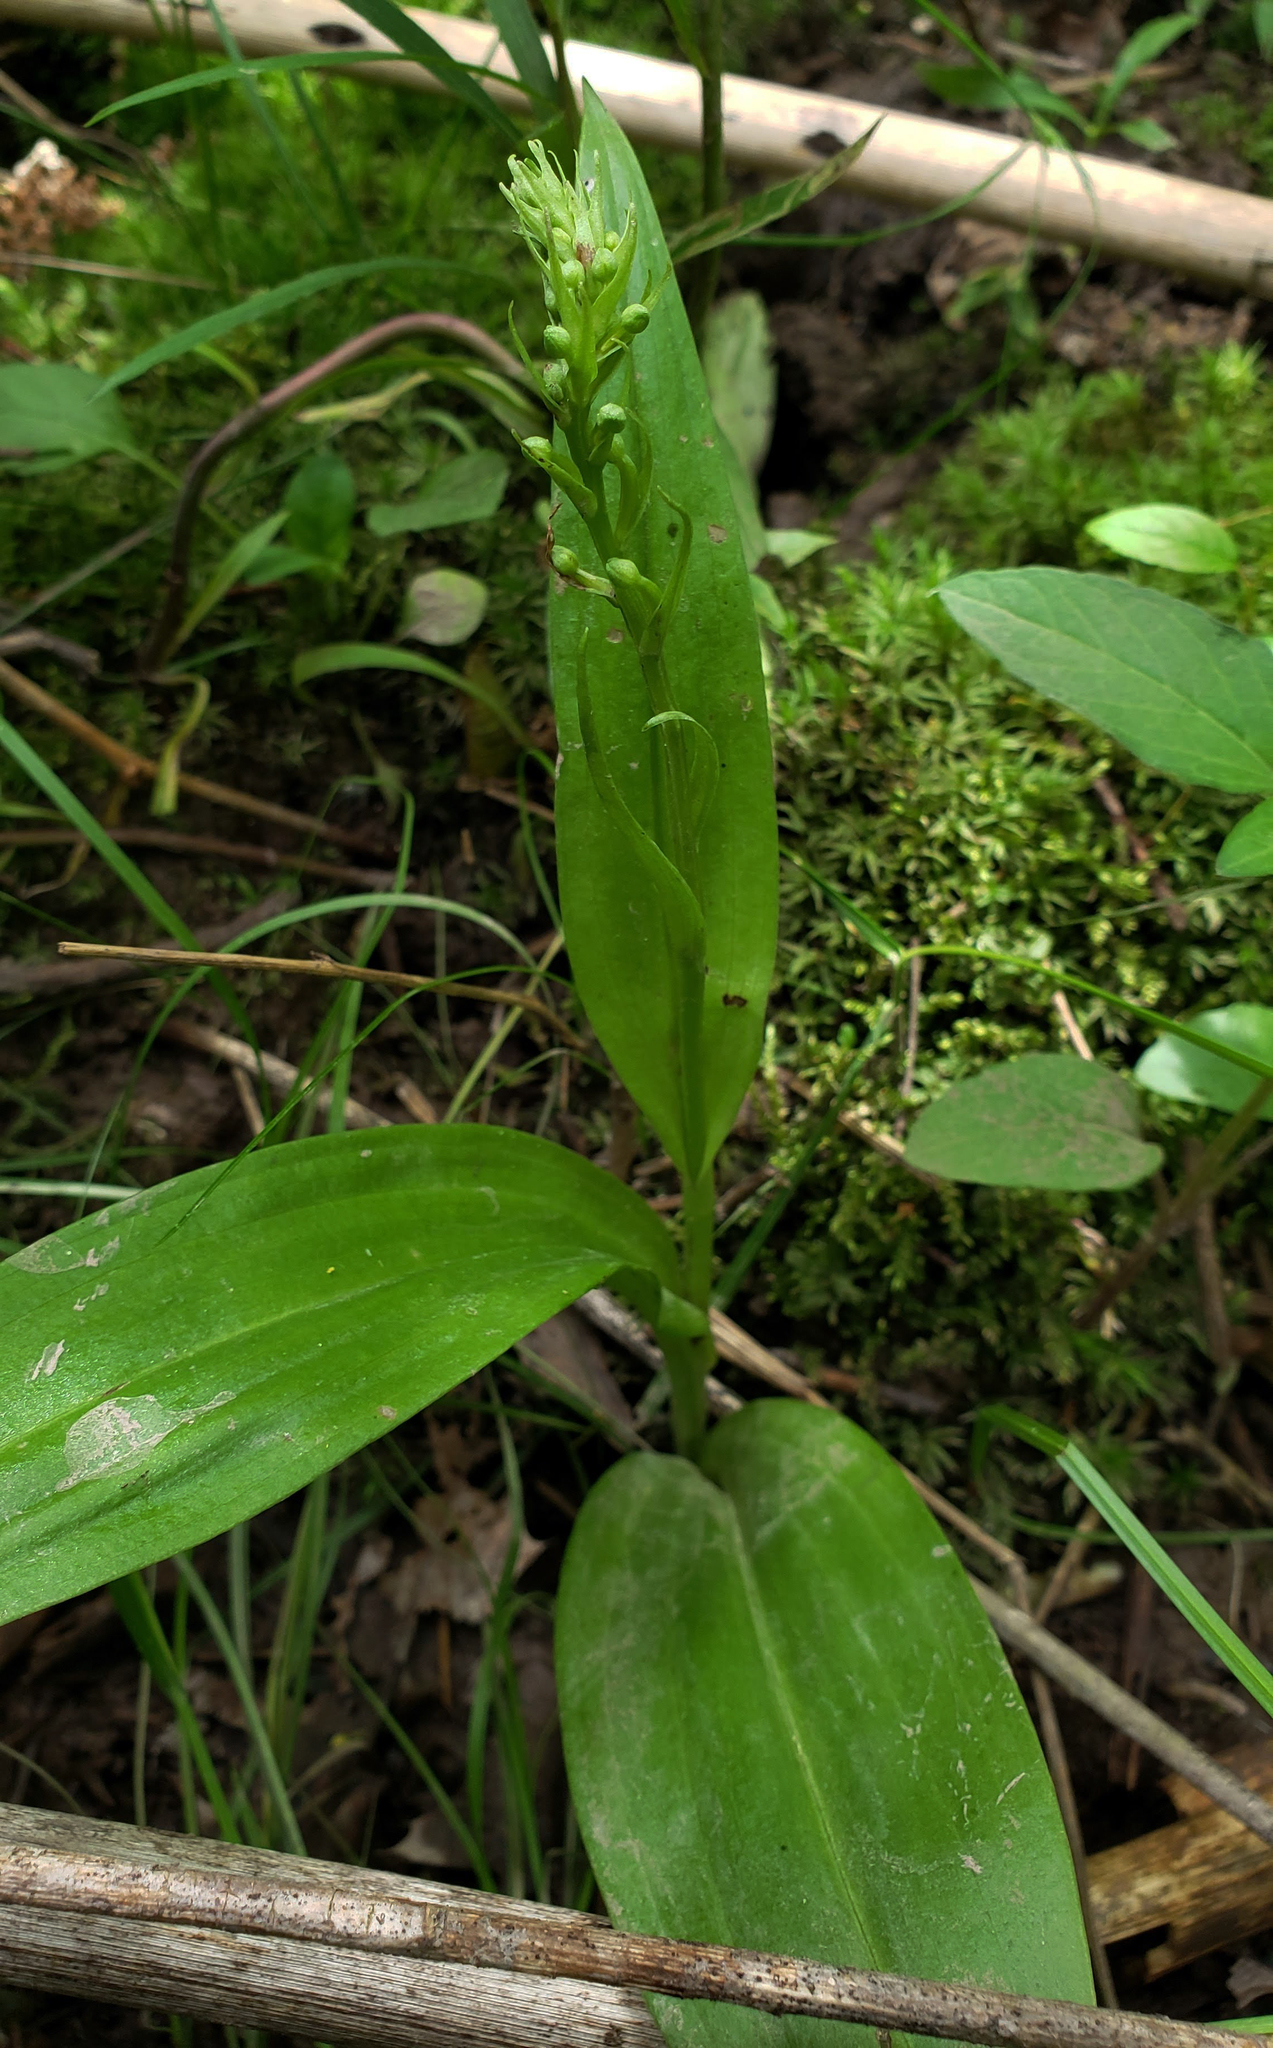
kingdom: Plantae
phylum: Tracheophyta
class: Liliopsida
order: Asparagales
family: Orchidaceae
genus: Platanthera
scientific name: Platanthera flava
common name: Gypsy-spikes
